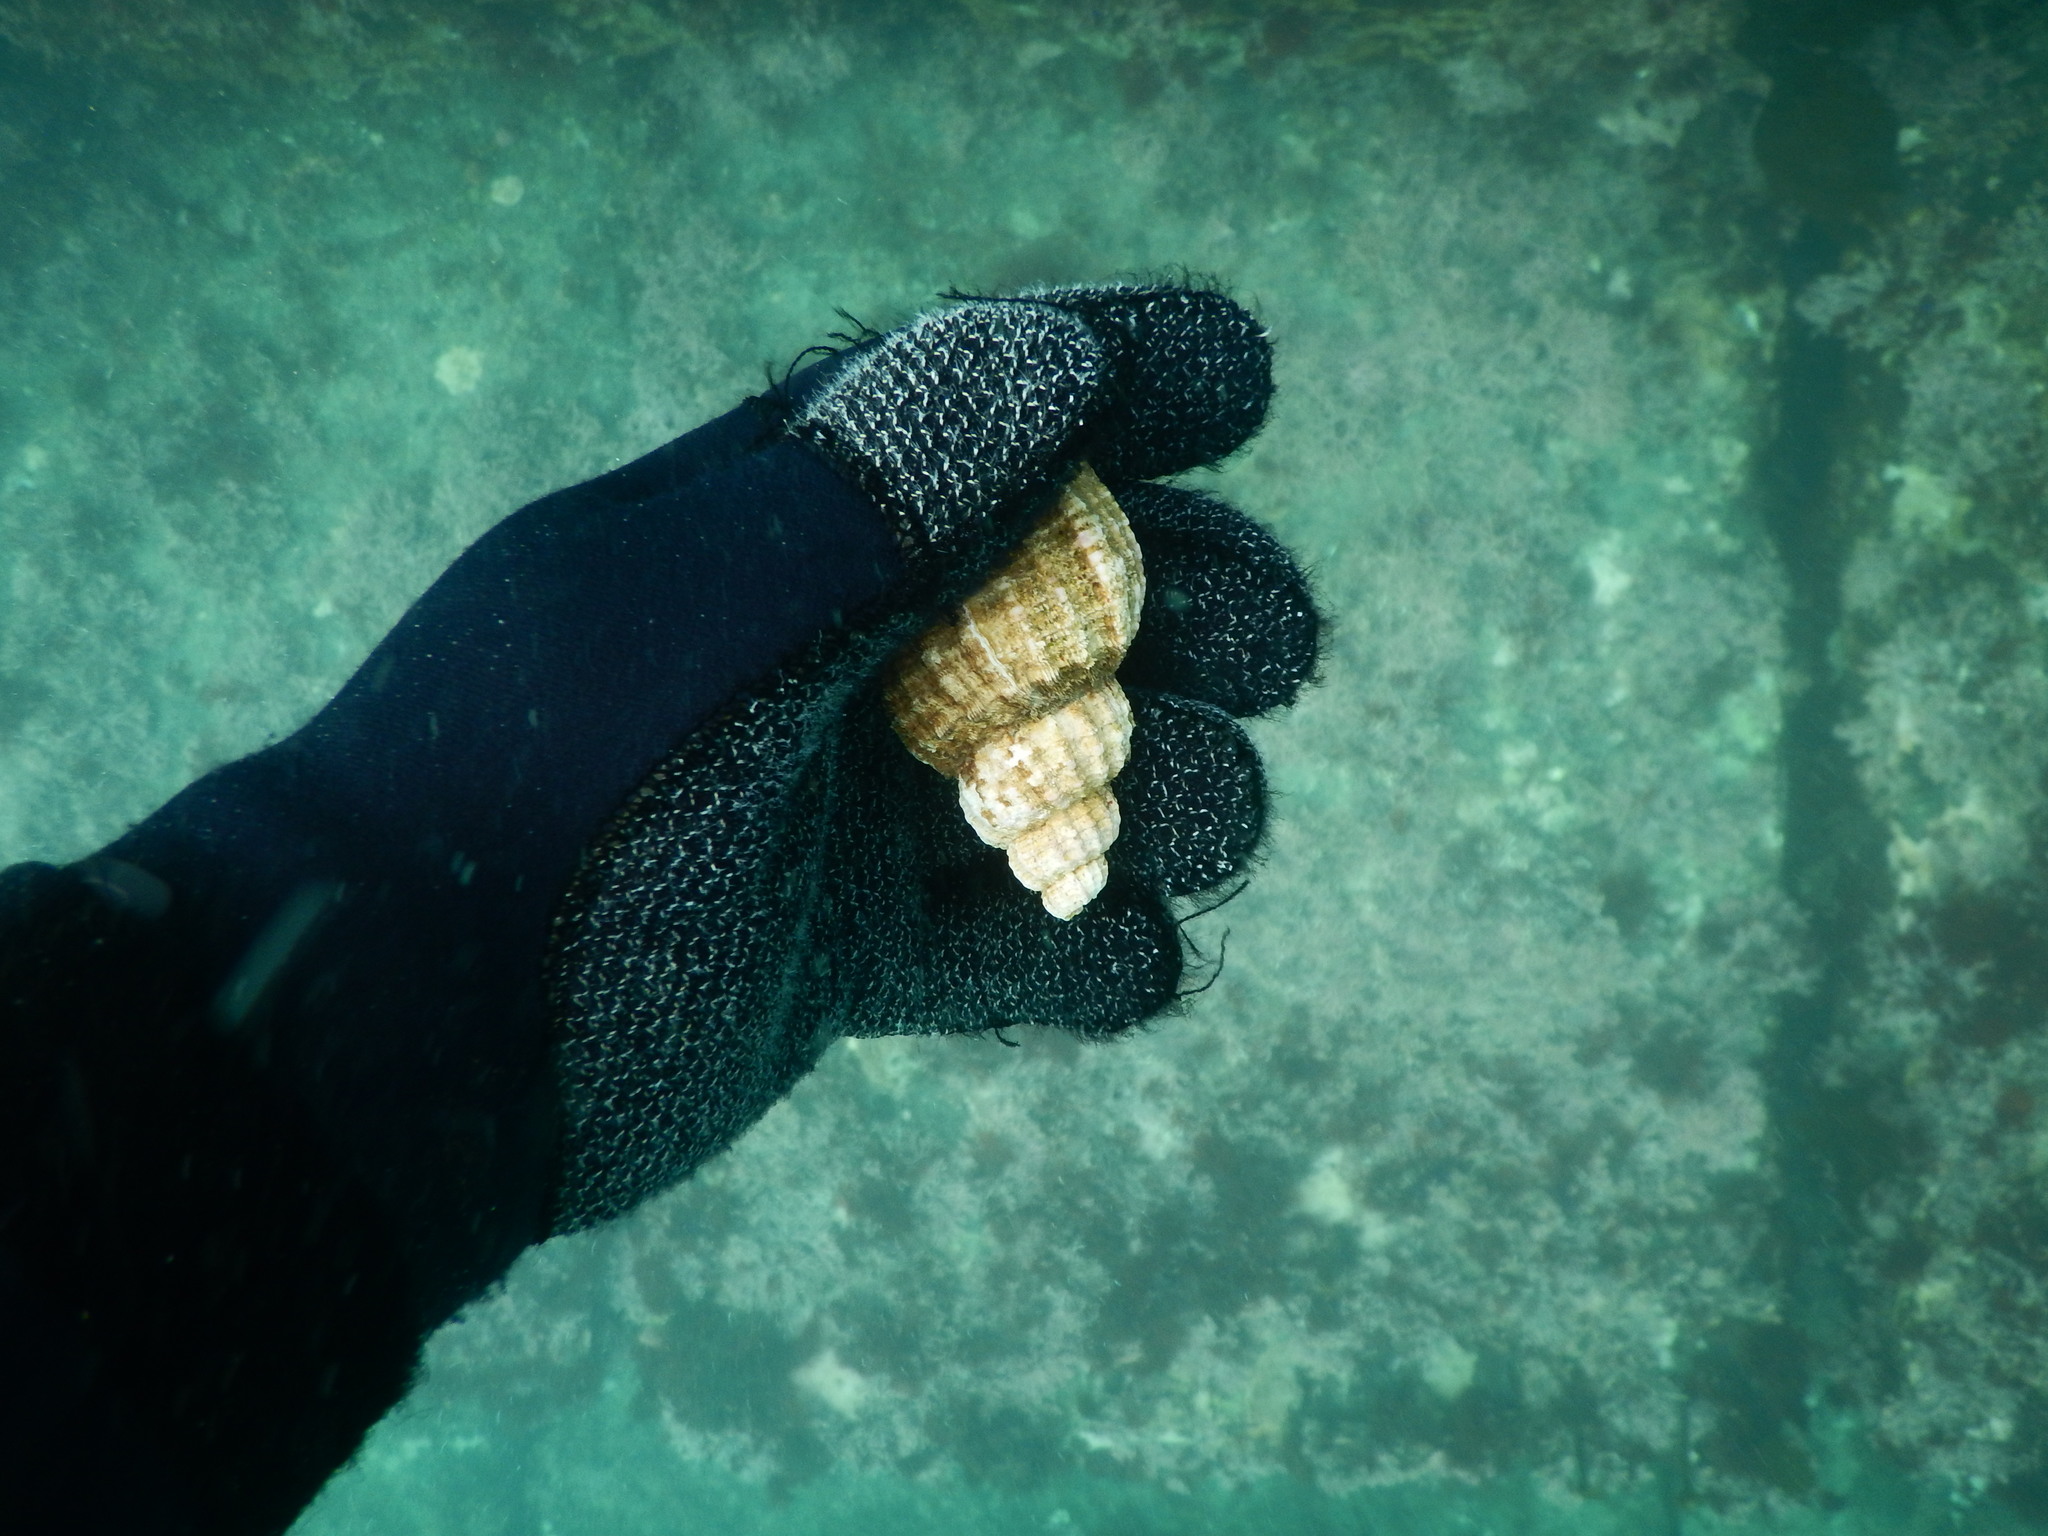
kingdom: Animalia
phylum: Mollusca
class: Gastropoda
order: Littorinimorpha
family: Cymatiidae
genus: Fusitriton
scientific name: Fusitriton oregonensis
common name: Oregon hairy triton
